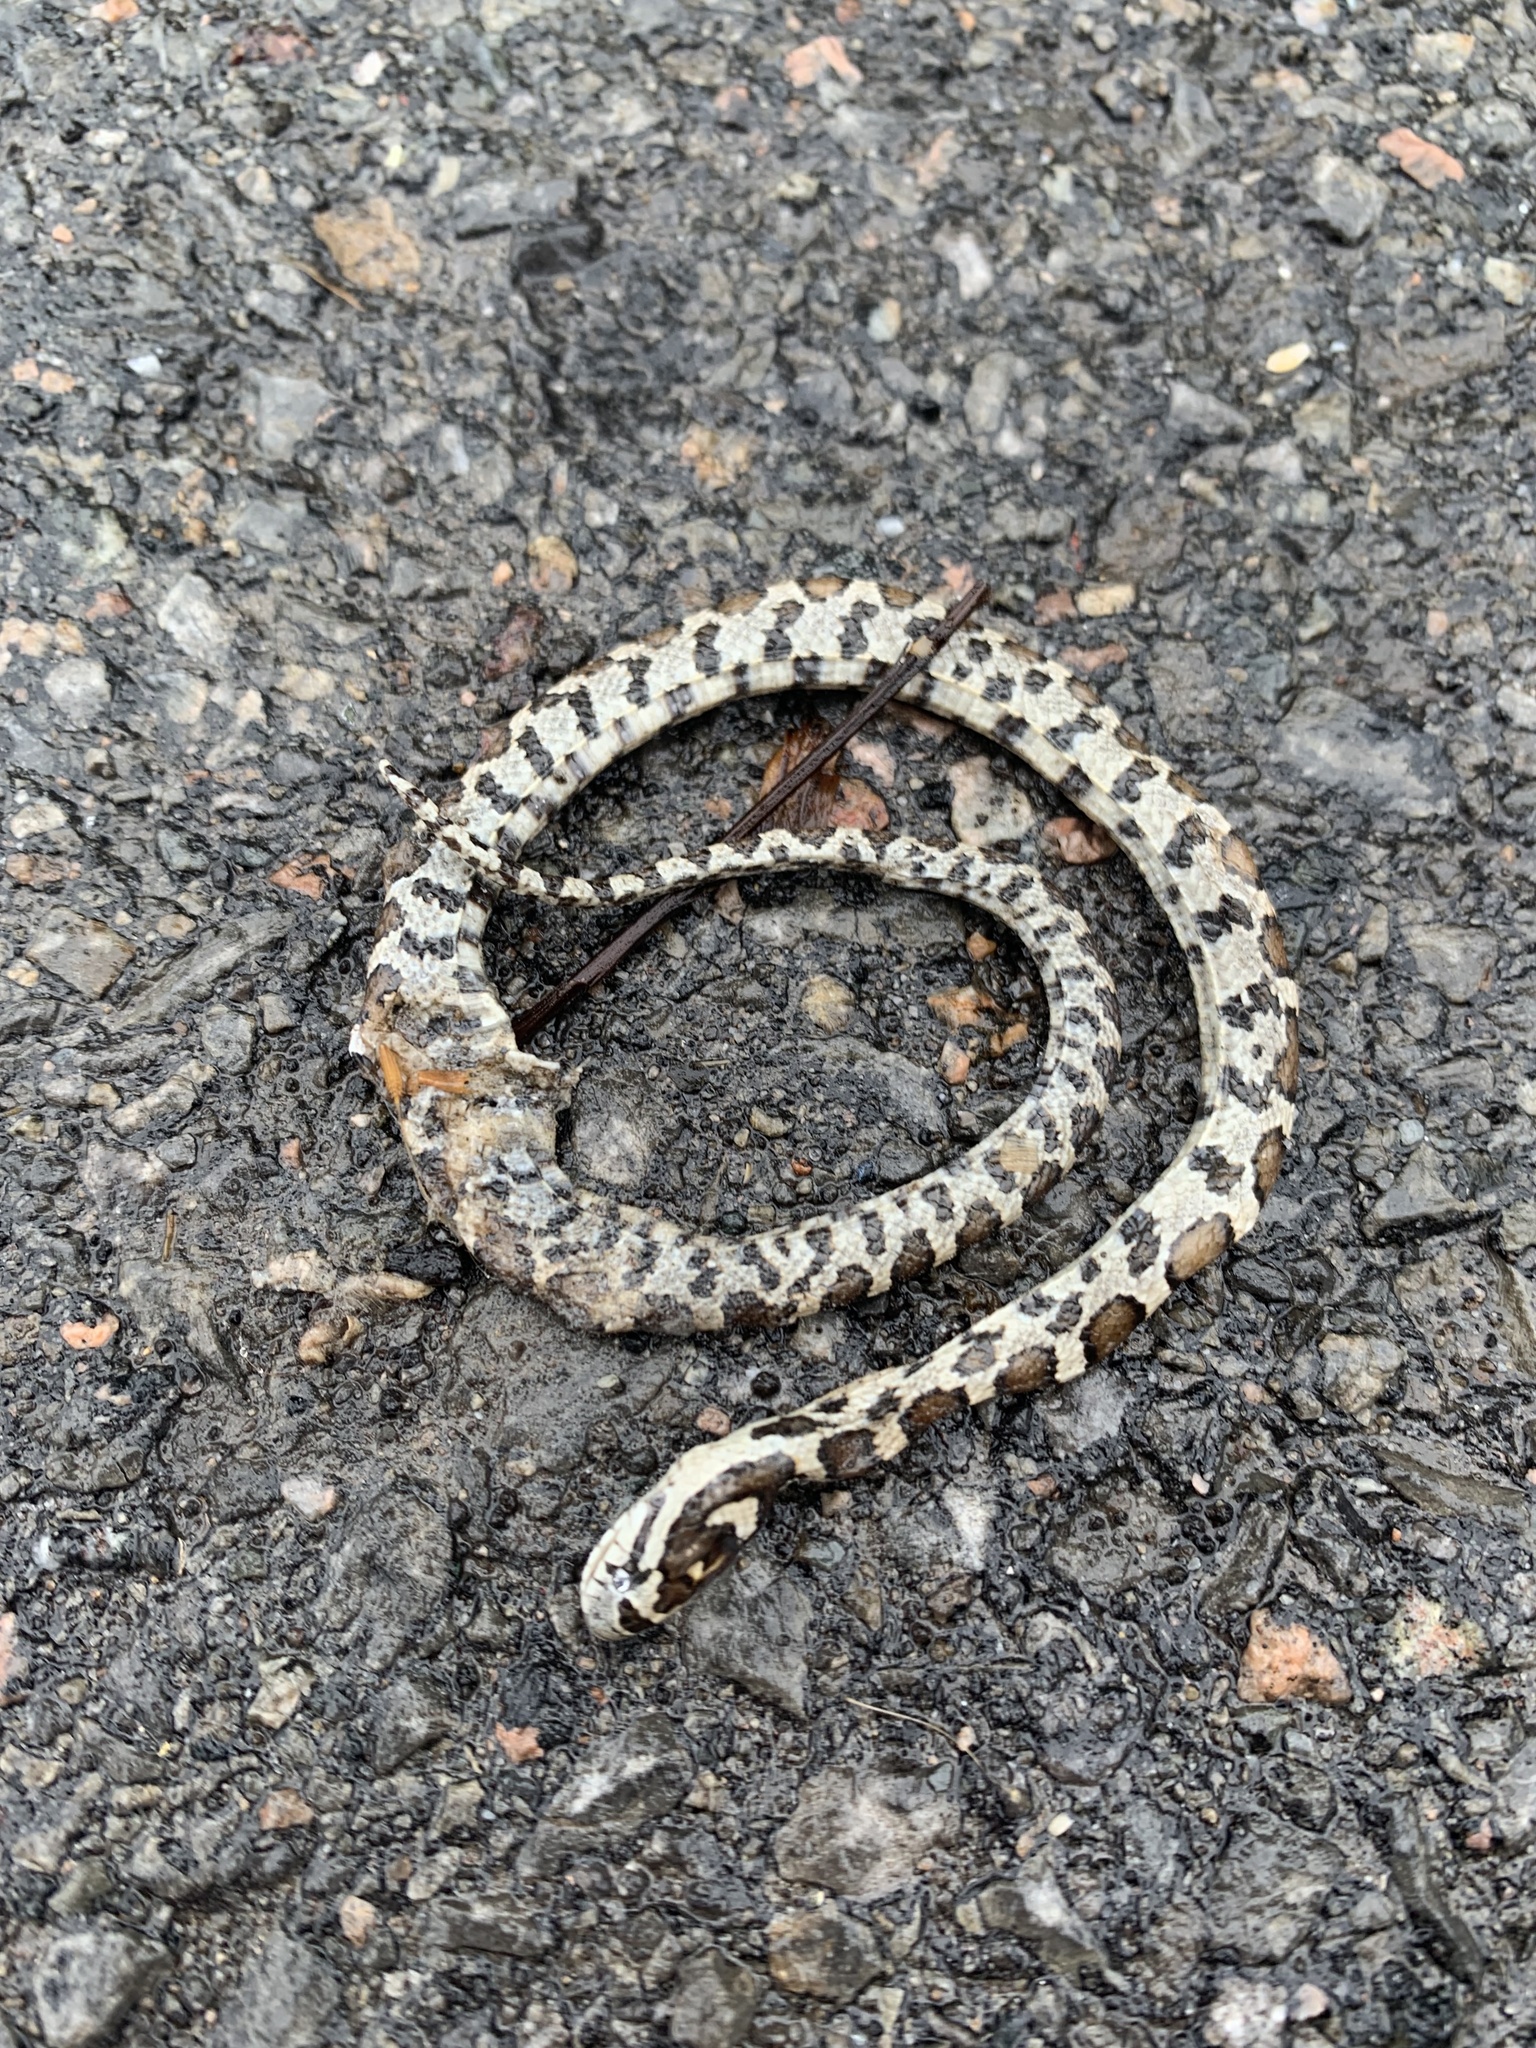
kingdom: Animalia
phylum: Chordata
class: Squamata
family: Colubridae
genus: Lampropeltis
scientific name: Lampropeltis triangulum
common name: Eastern milksnake
